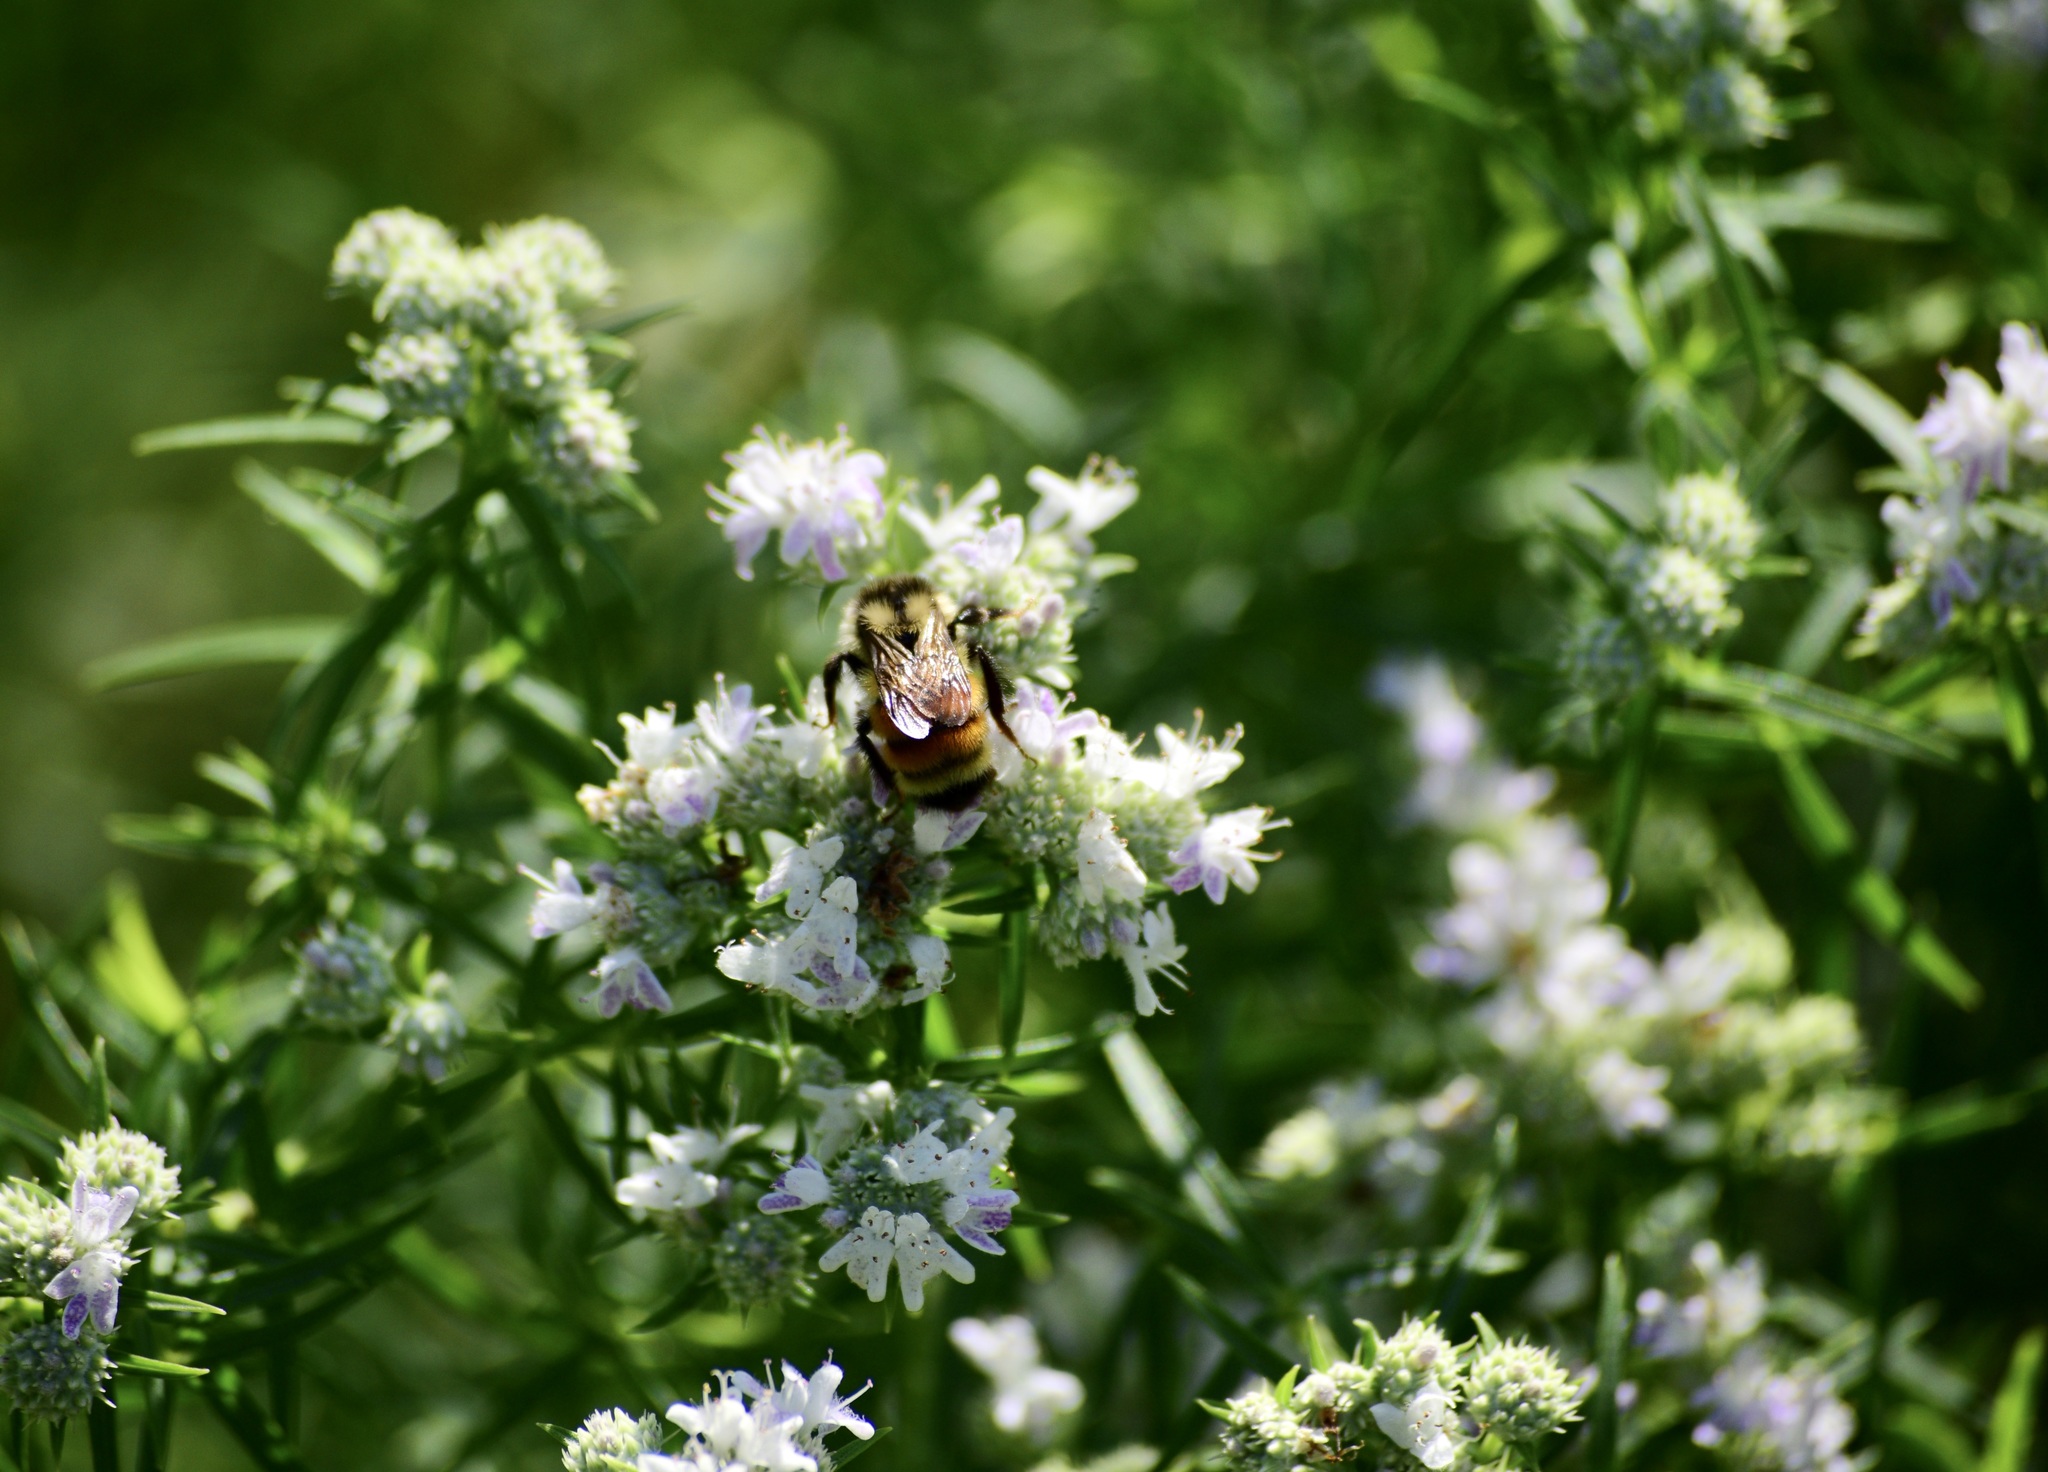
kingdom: Animalia
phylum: Arthropoda
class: Insecta
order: Hymenoptera
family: Apidae
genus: Bombus
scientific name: Bombus ternarius
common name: Tri-colored bumble bee
